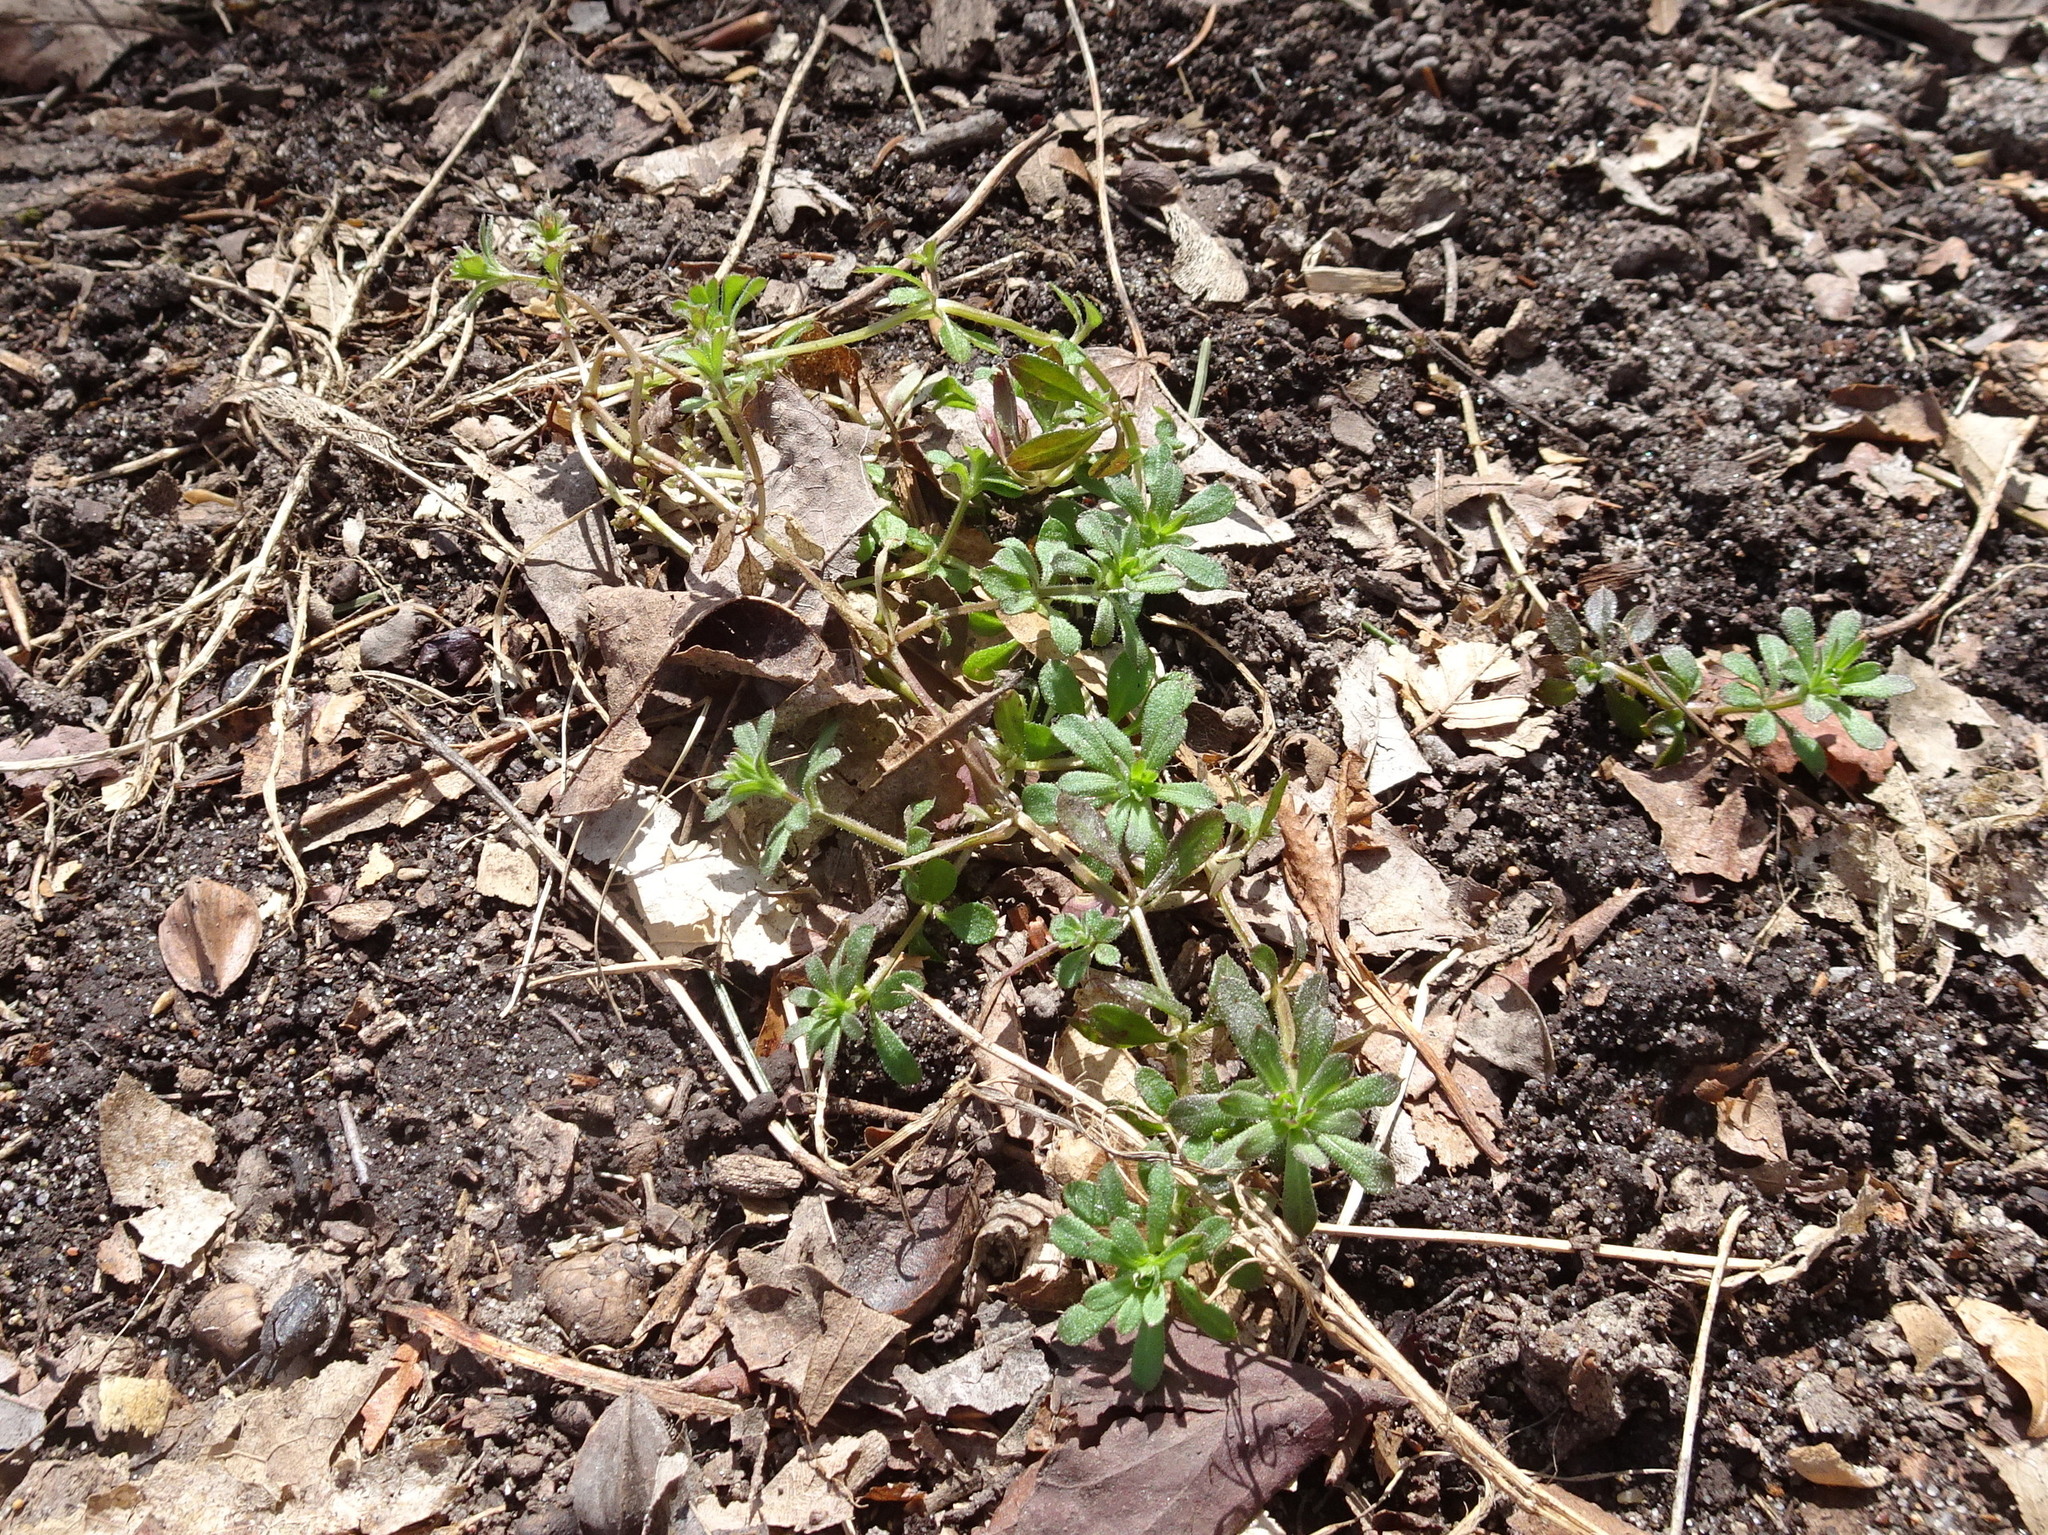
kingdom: Plantae
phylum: Tracheophyta
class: Magnoliopsida
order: Gentianales
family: Rubiaceae
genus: Galium
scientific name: Galium aparine
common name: Cleavers
